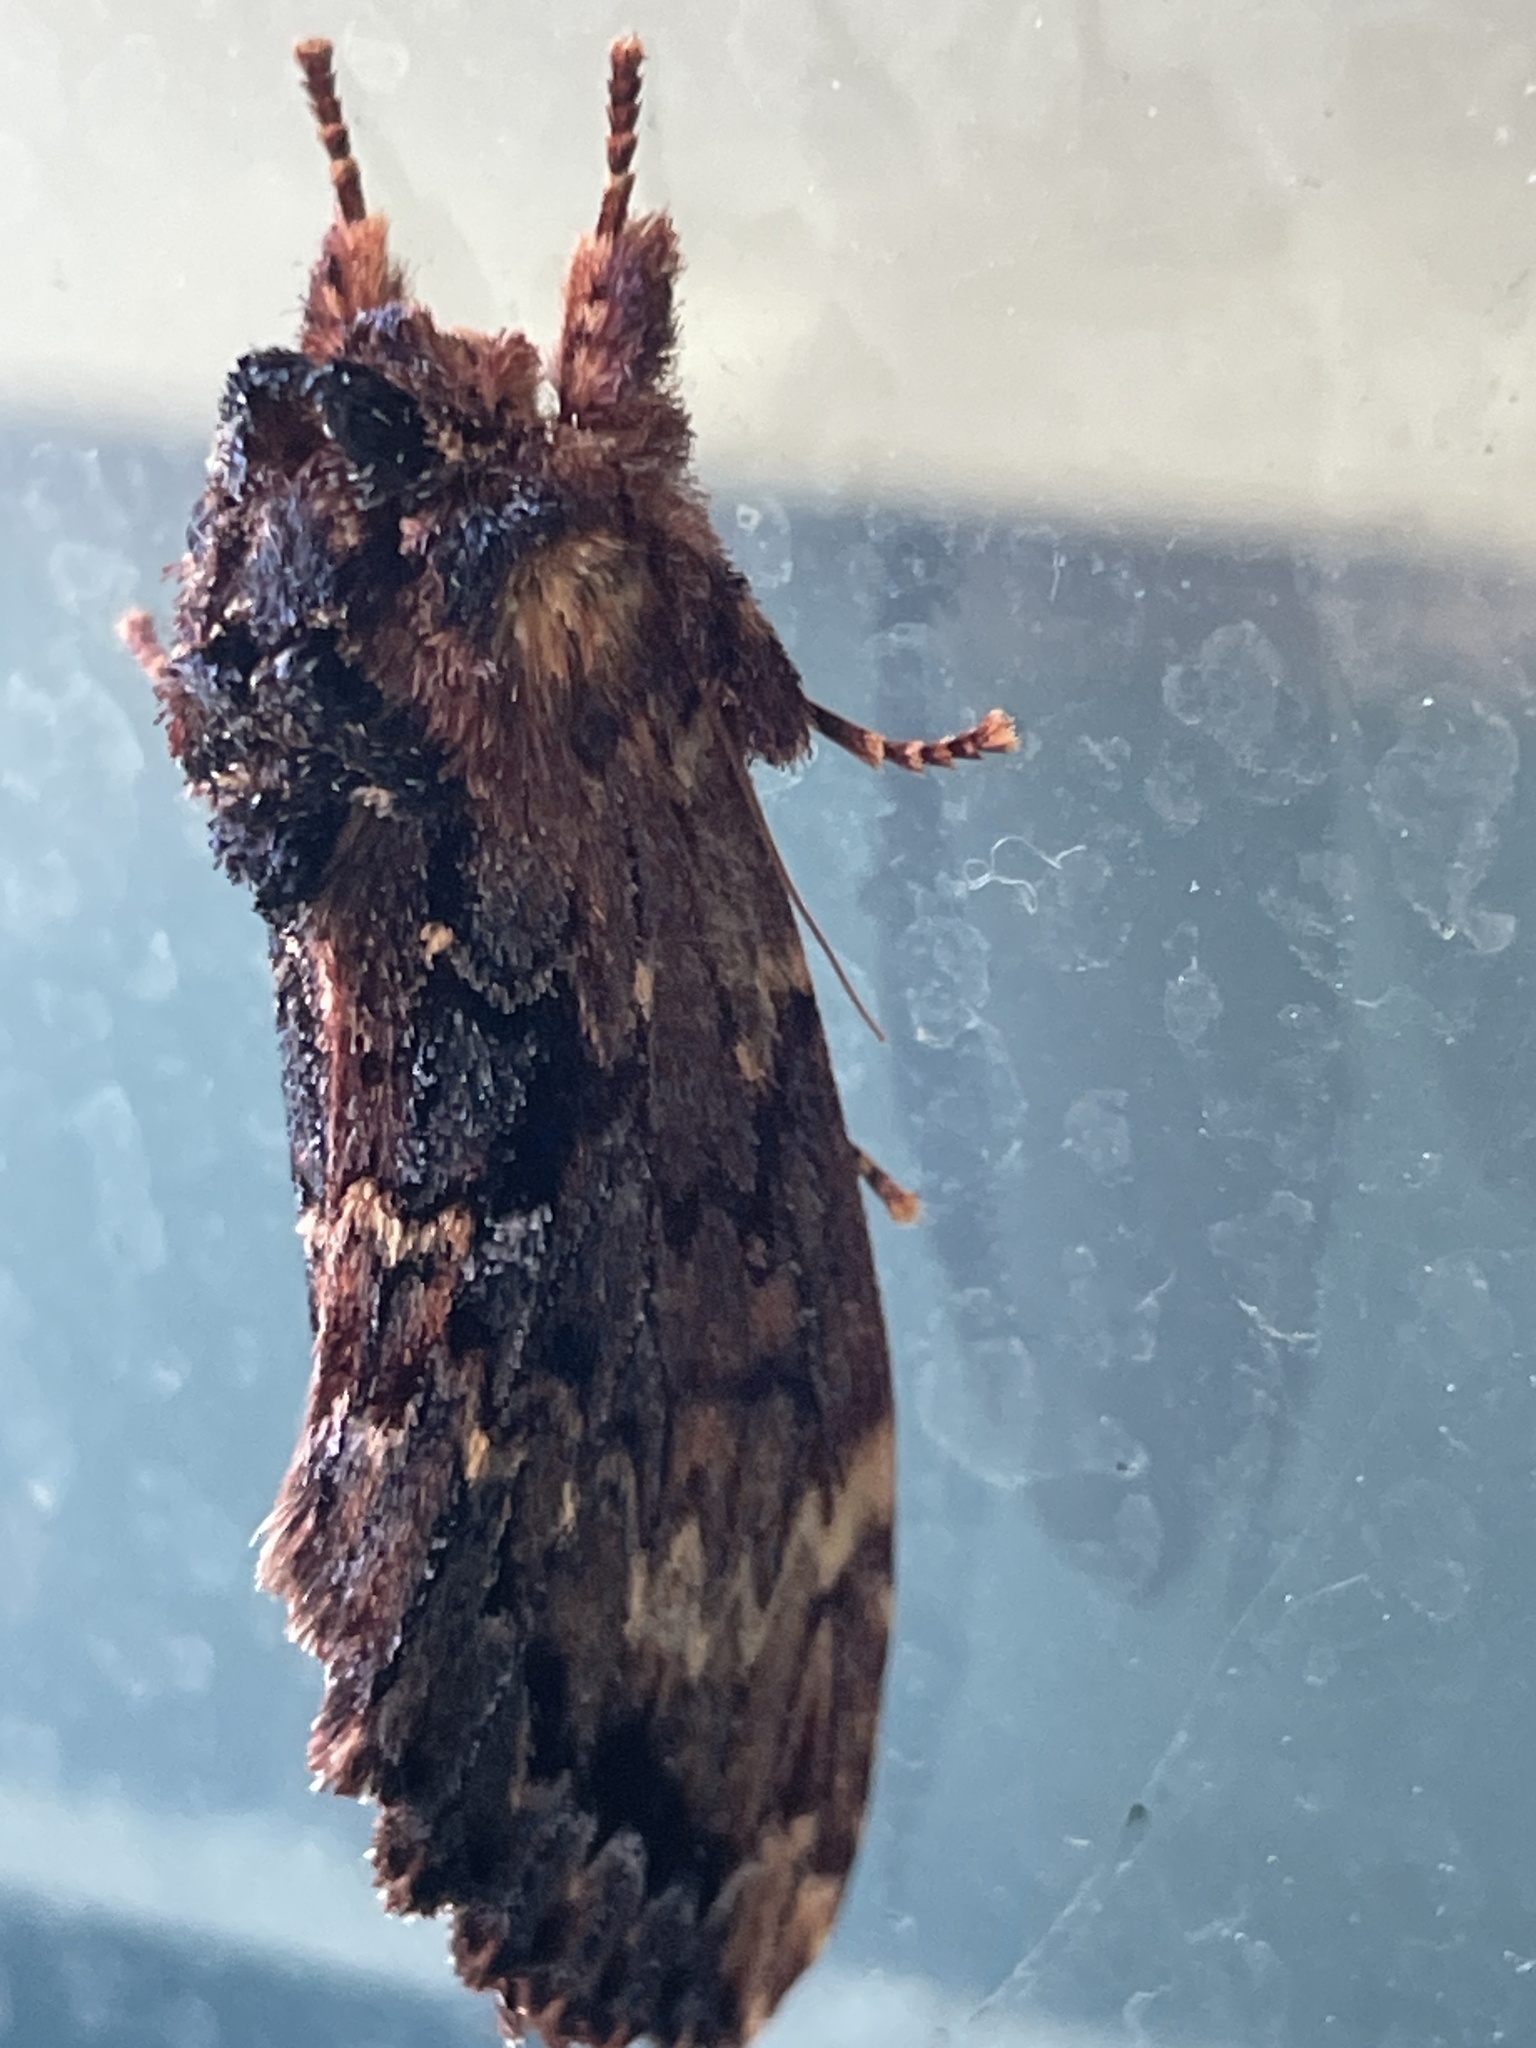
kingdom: Animalia
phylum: Arthropoda
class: Insecta
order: Lepidoptera
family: Notodontidae
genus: Sorama
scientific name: Sorama bicolor
